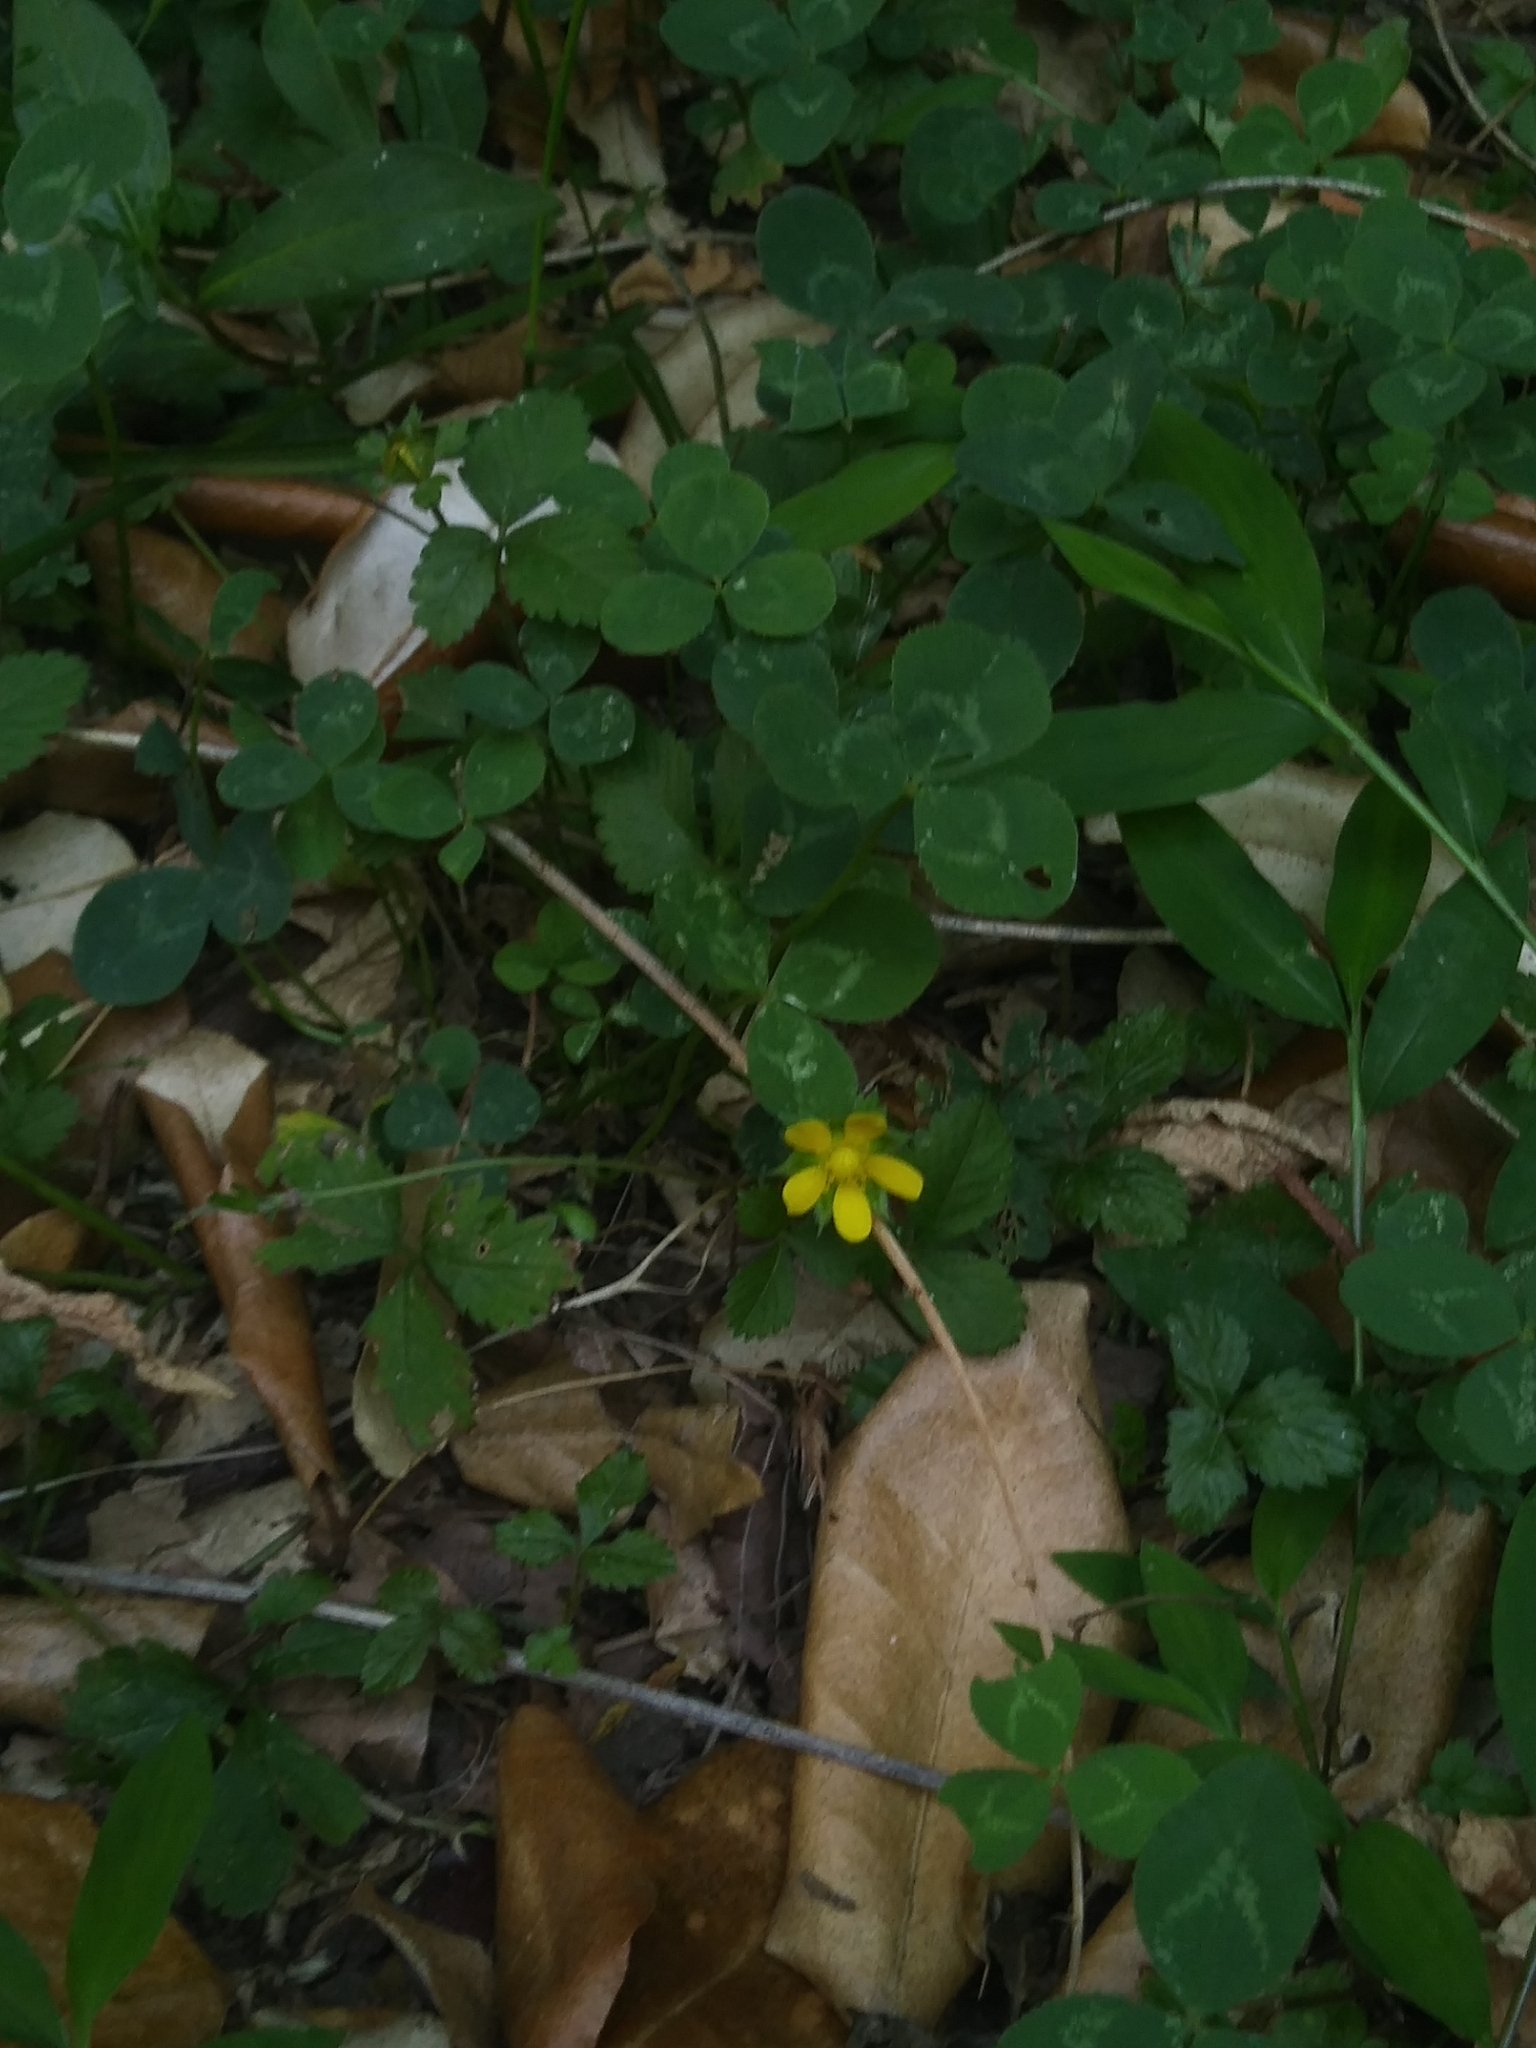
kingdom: Plantae
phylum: Tracheophyta
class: Magnoliopsida
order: Rosales
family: Rosaceae
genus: Potentilla
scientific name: Potentilla indica
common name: Yellow-flowered strawberry
